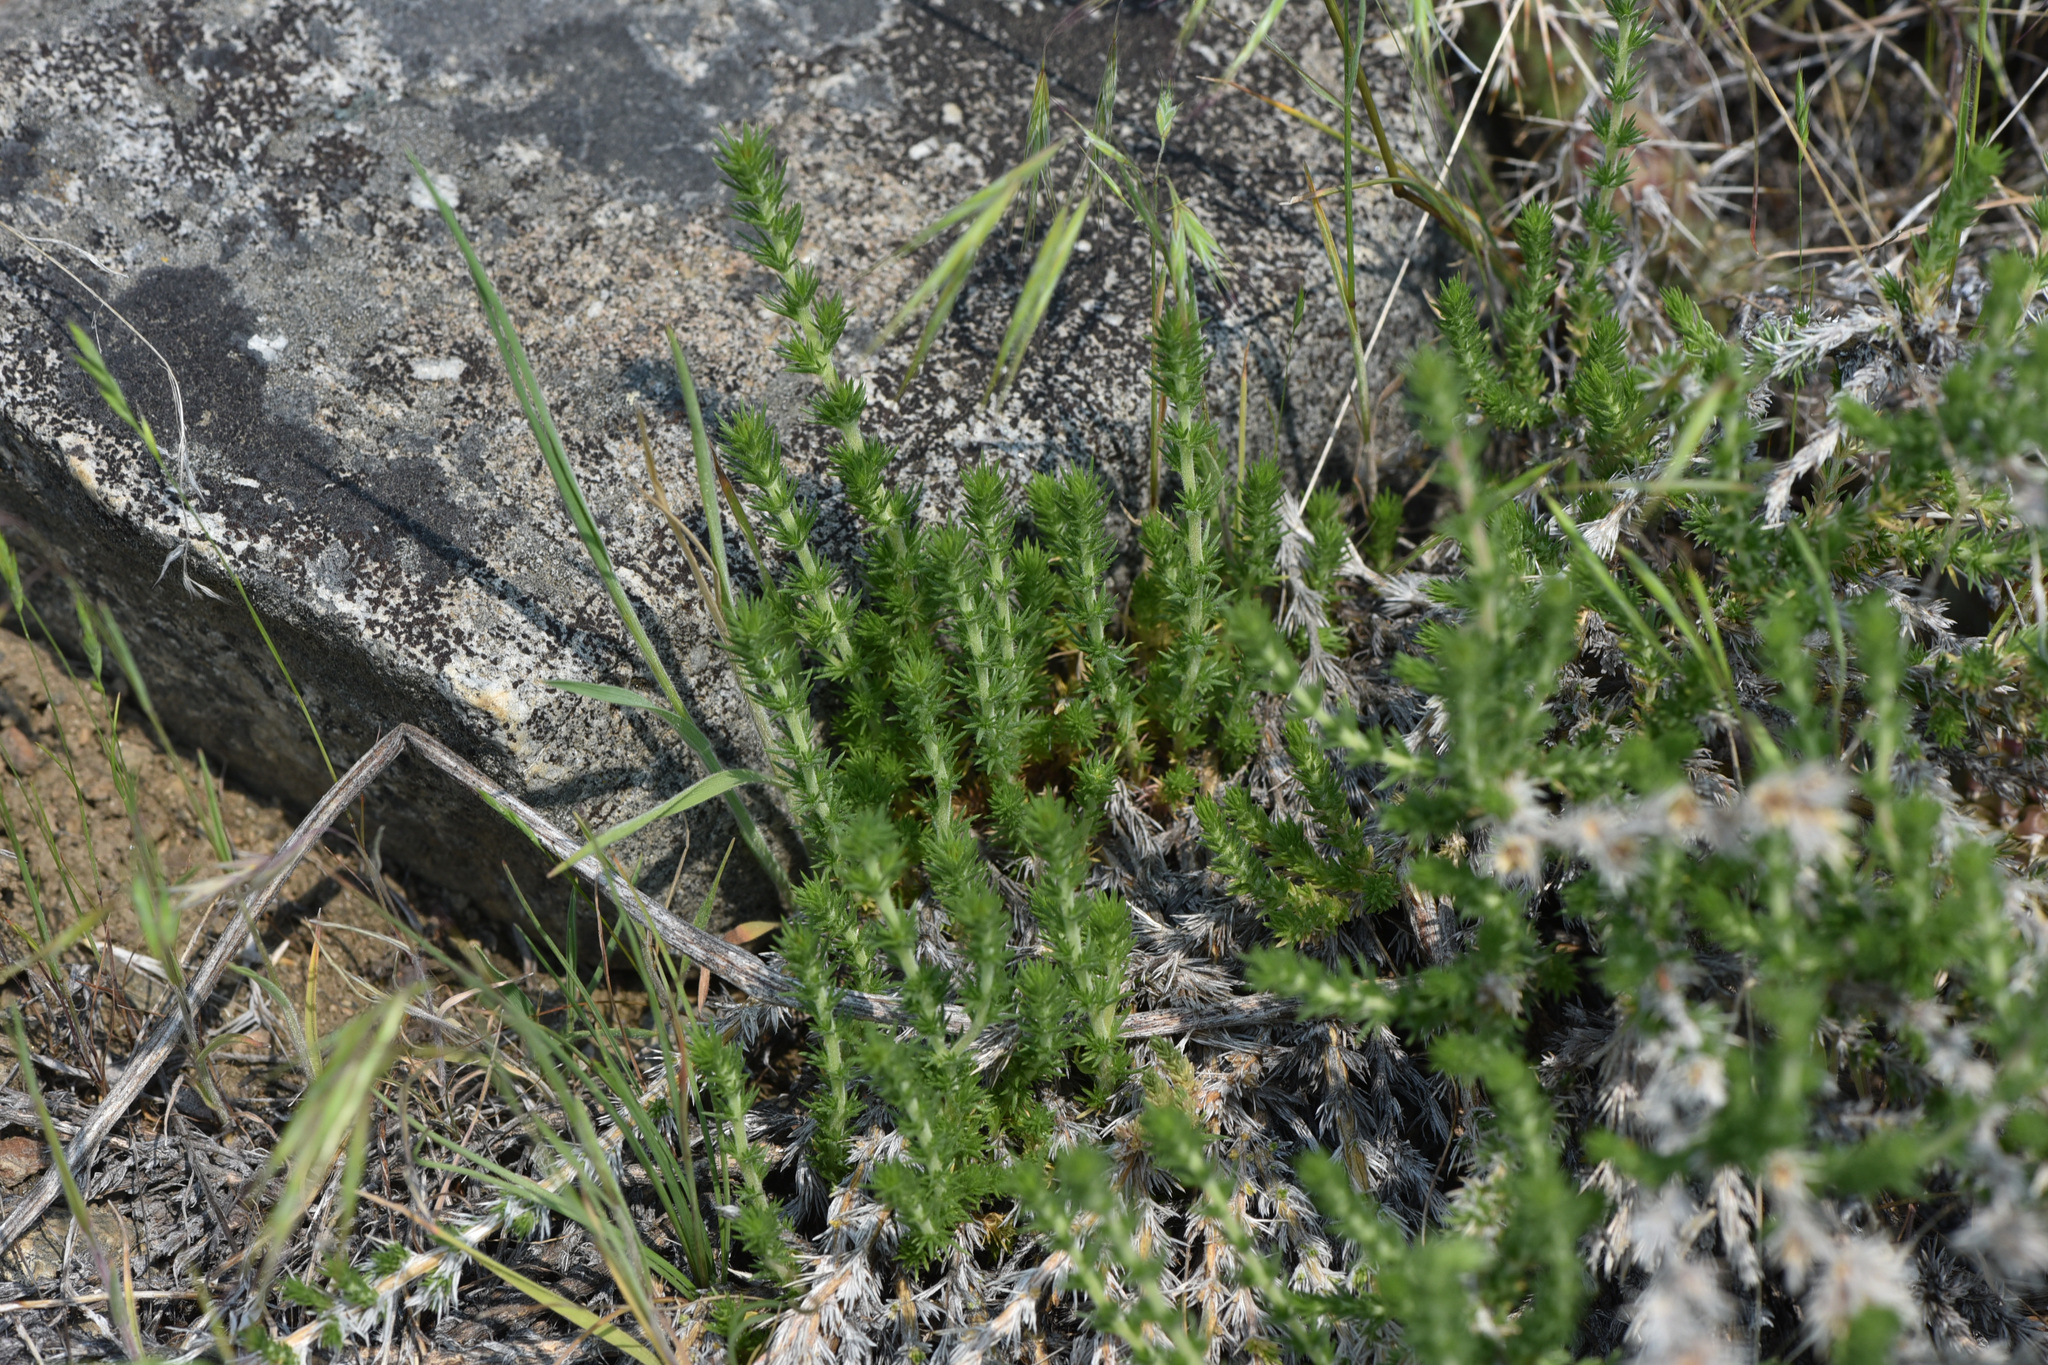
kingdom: Plantae
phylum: Tracheophyta
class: Magnoliopsida
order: Ericales
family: Polemoniaceae
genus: Linanthus
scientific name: Linanthus pungens
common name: Granite prickly phlox
